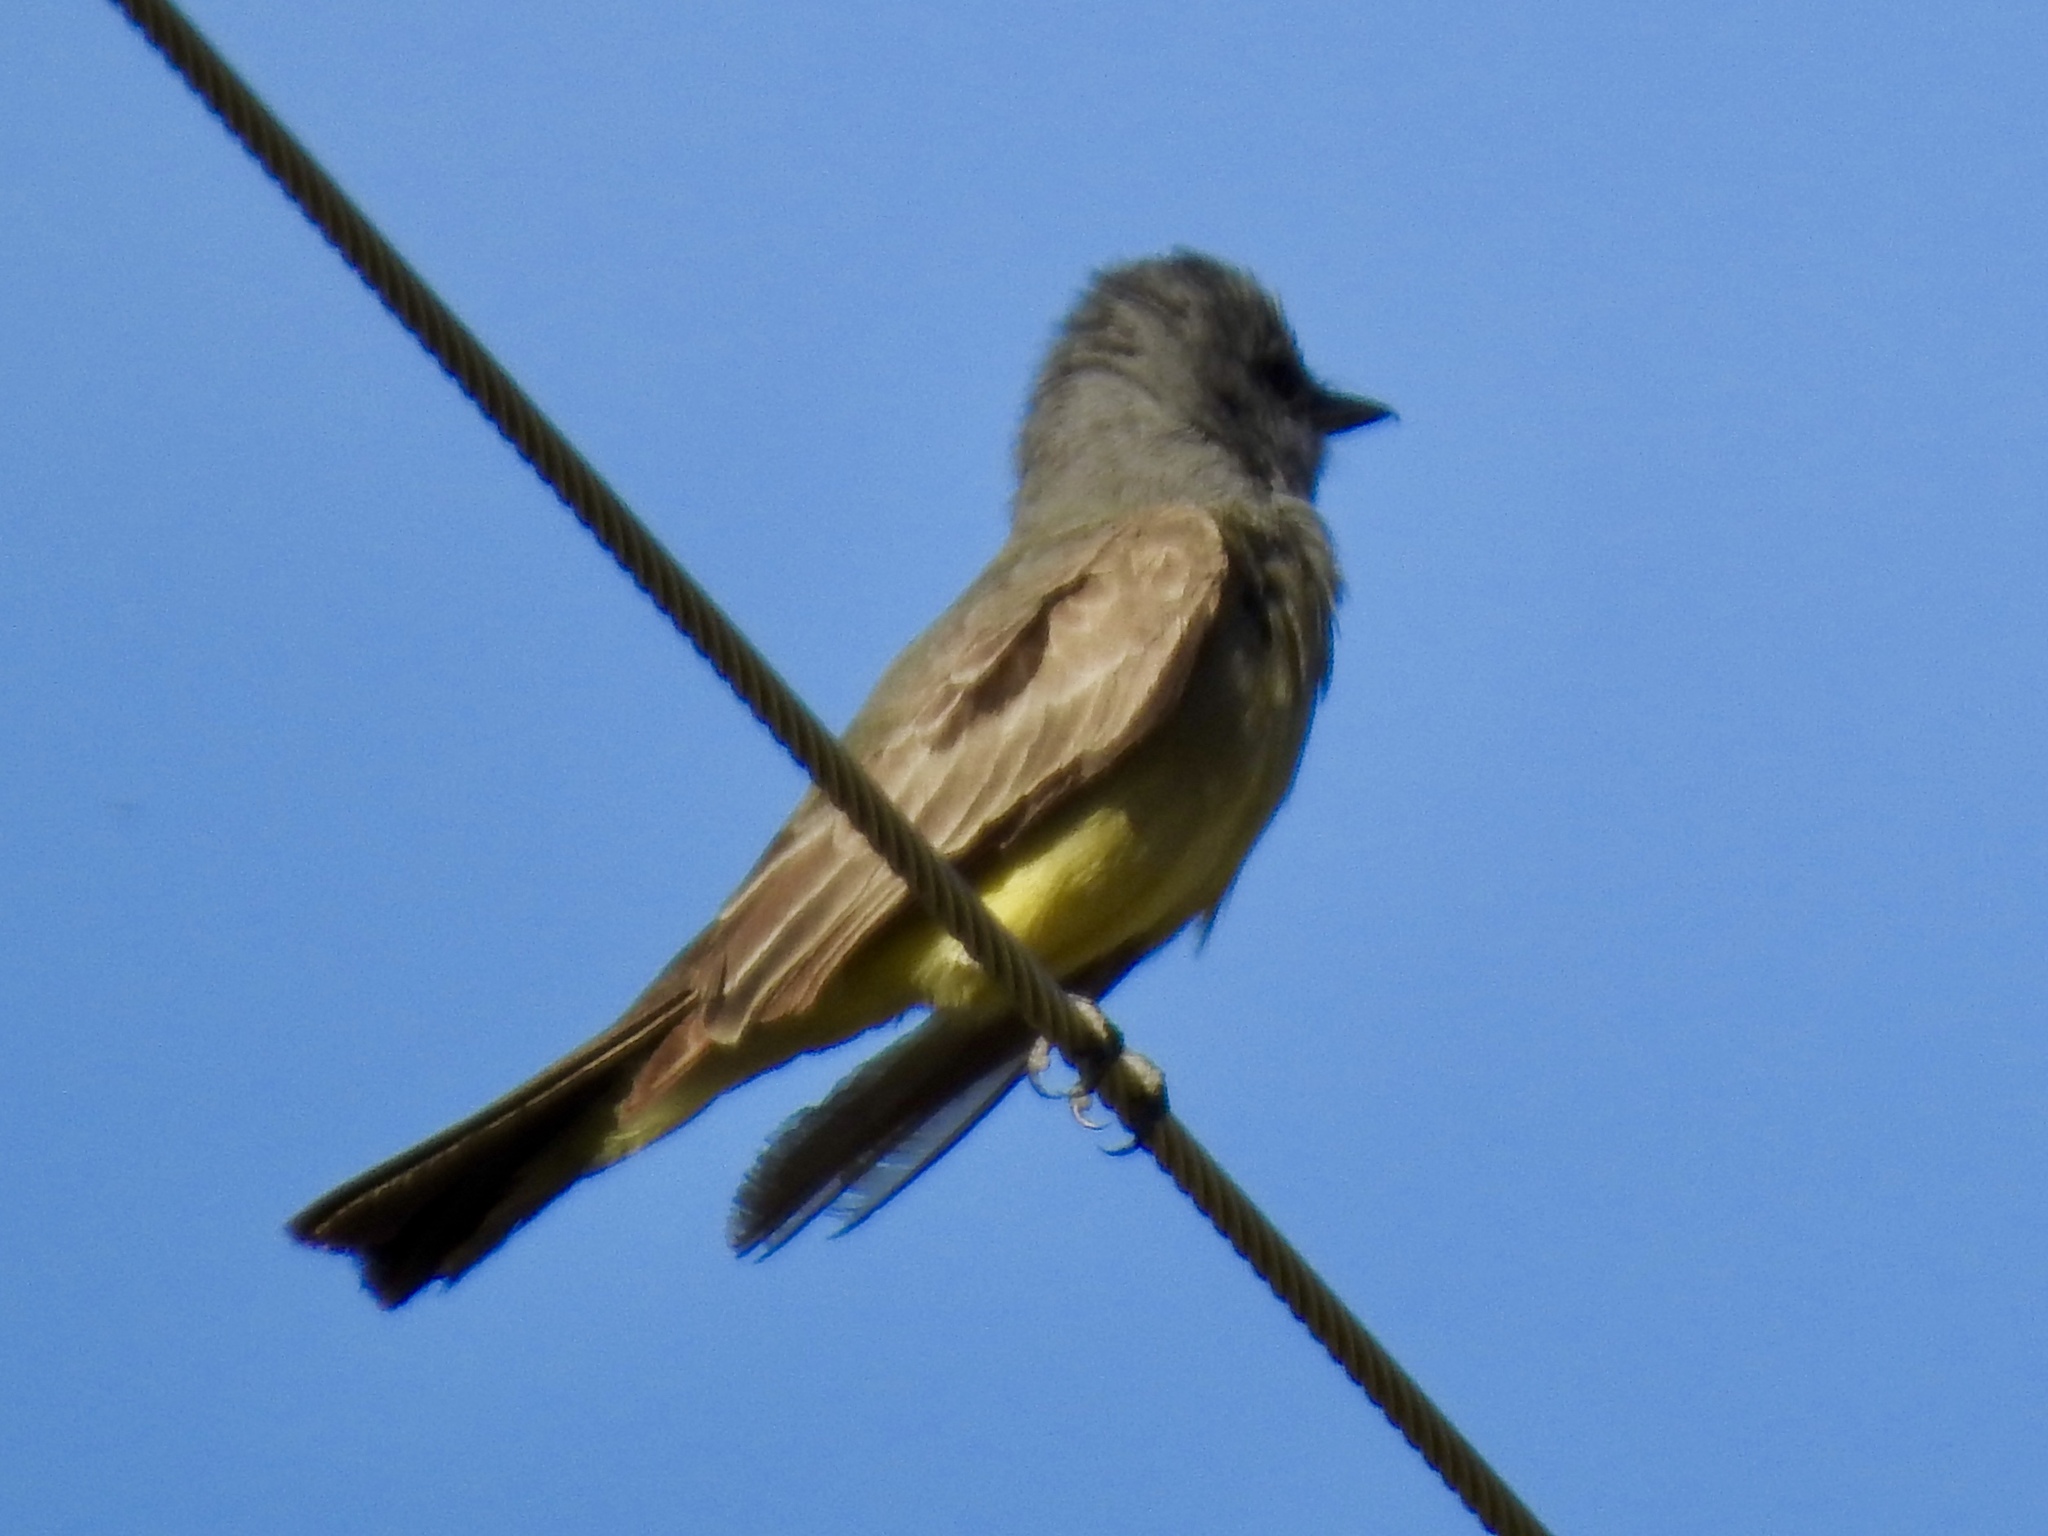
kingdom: Animalia
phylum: Chordata
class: Aves
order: Passeriformes
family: Tyrannidae
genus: Tyrannus
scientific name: Tyrannus vociferans
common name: Cassin's kingbird
